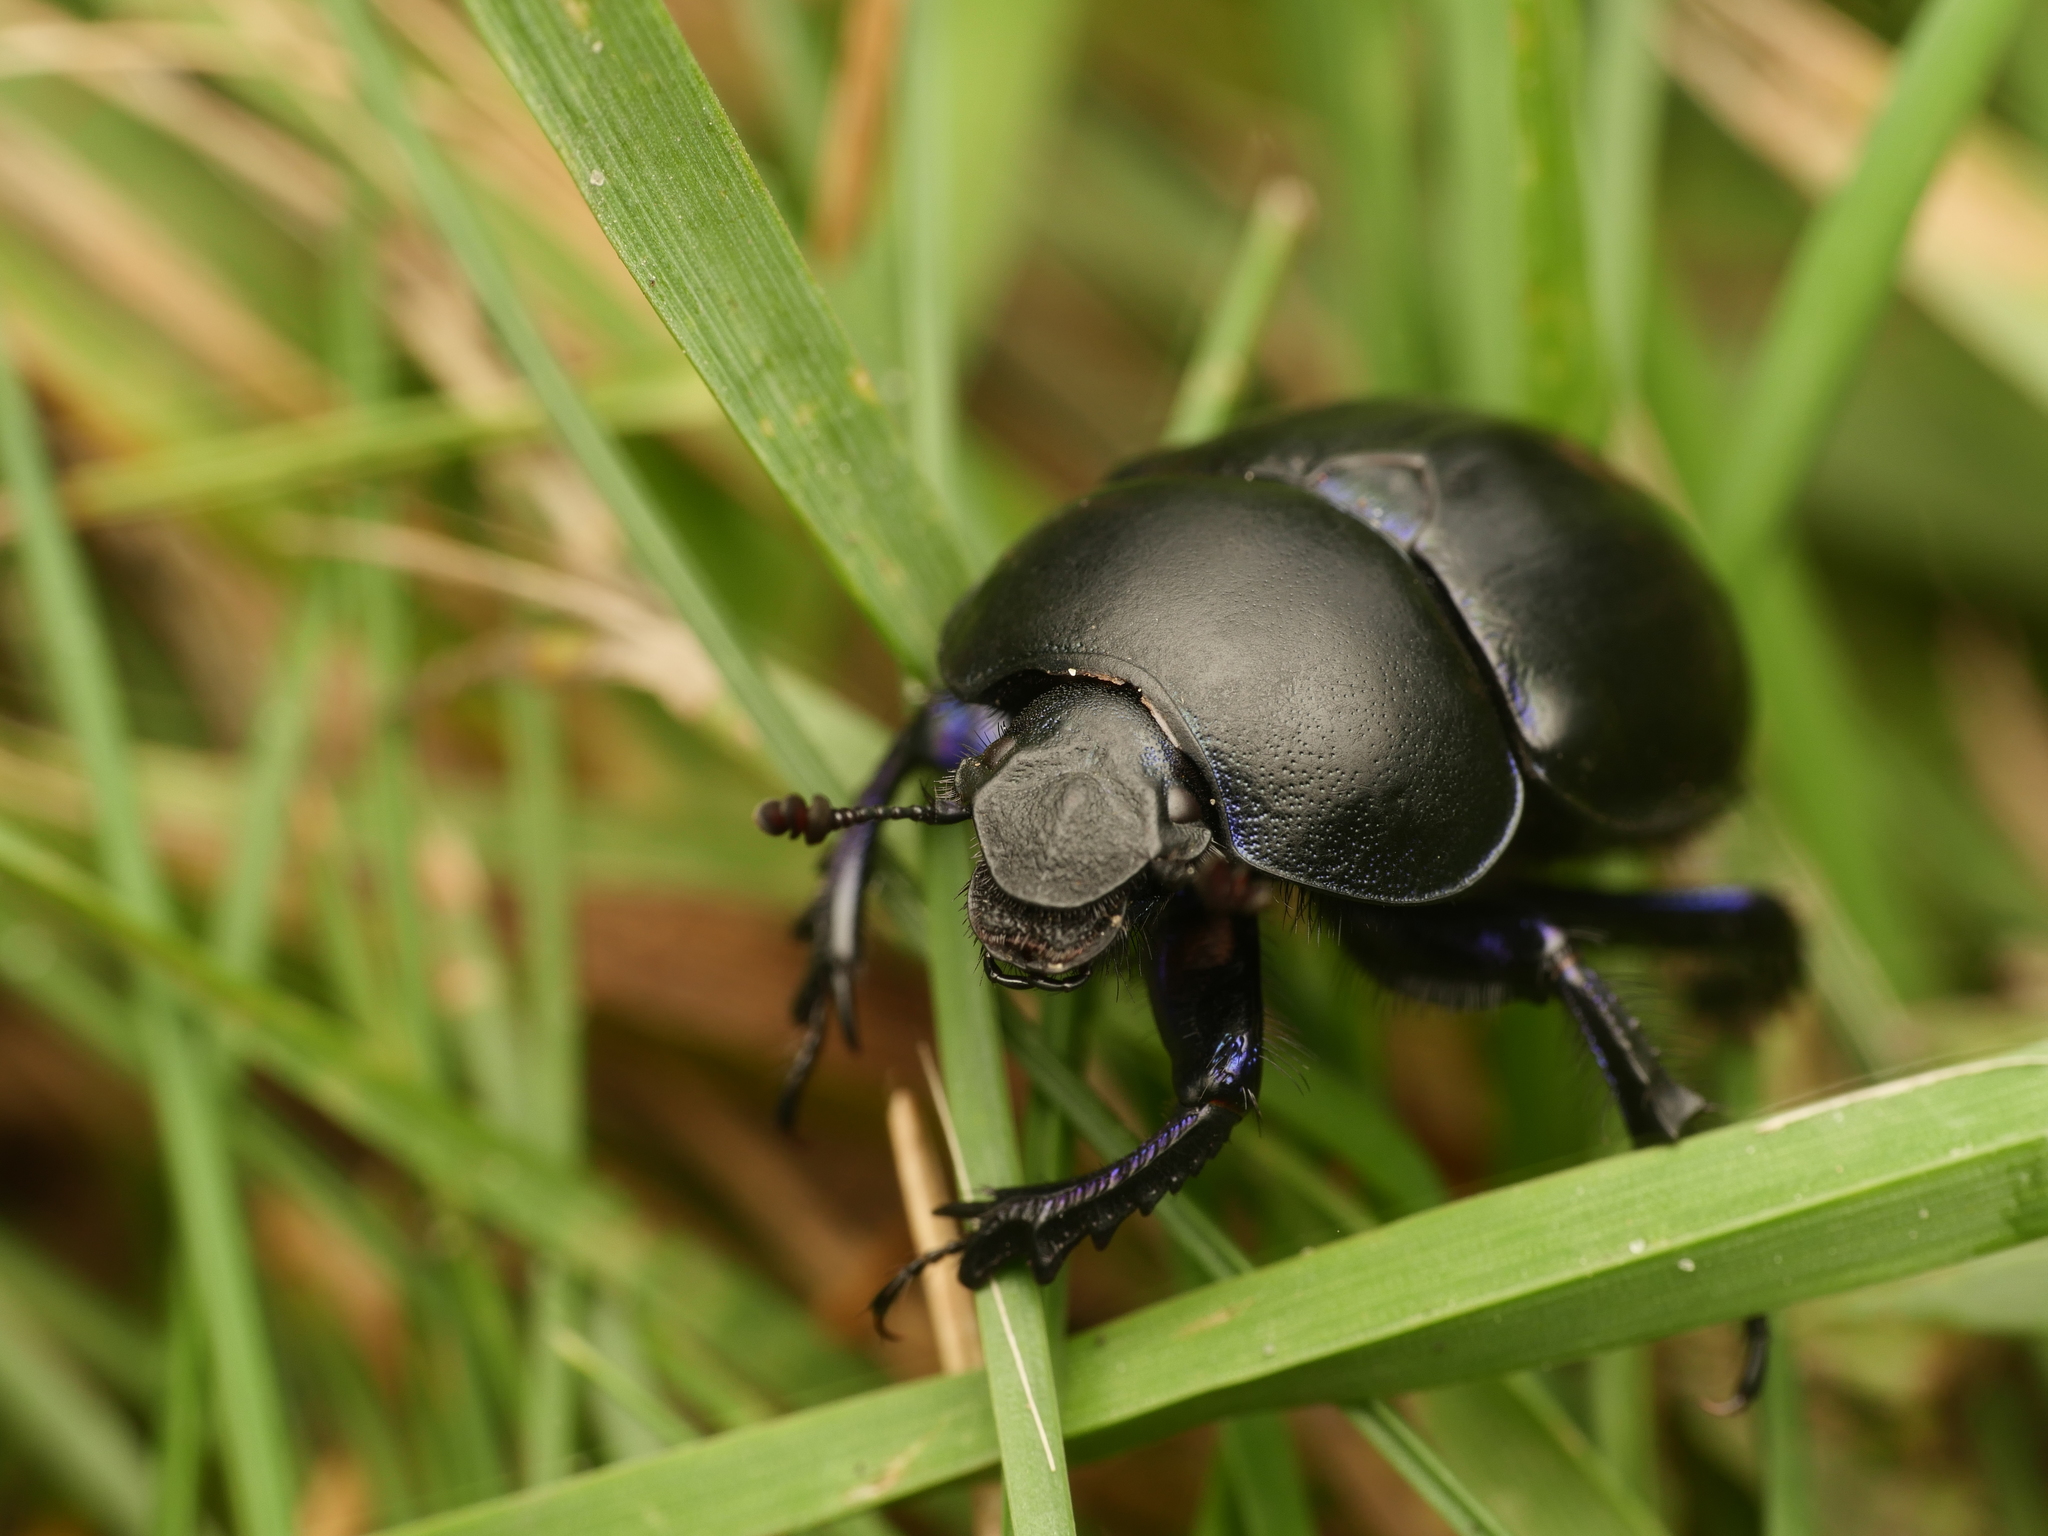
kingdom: Animalia
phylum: Arthropoda
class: Insecta
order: Coleoptera
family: Geotrupidae
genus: Trypocopris
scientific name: Trypocopris vernalis
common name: Spring dumbledor
